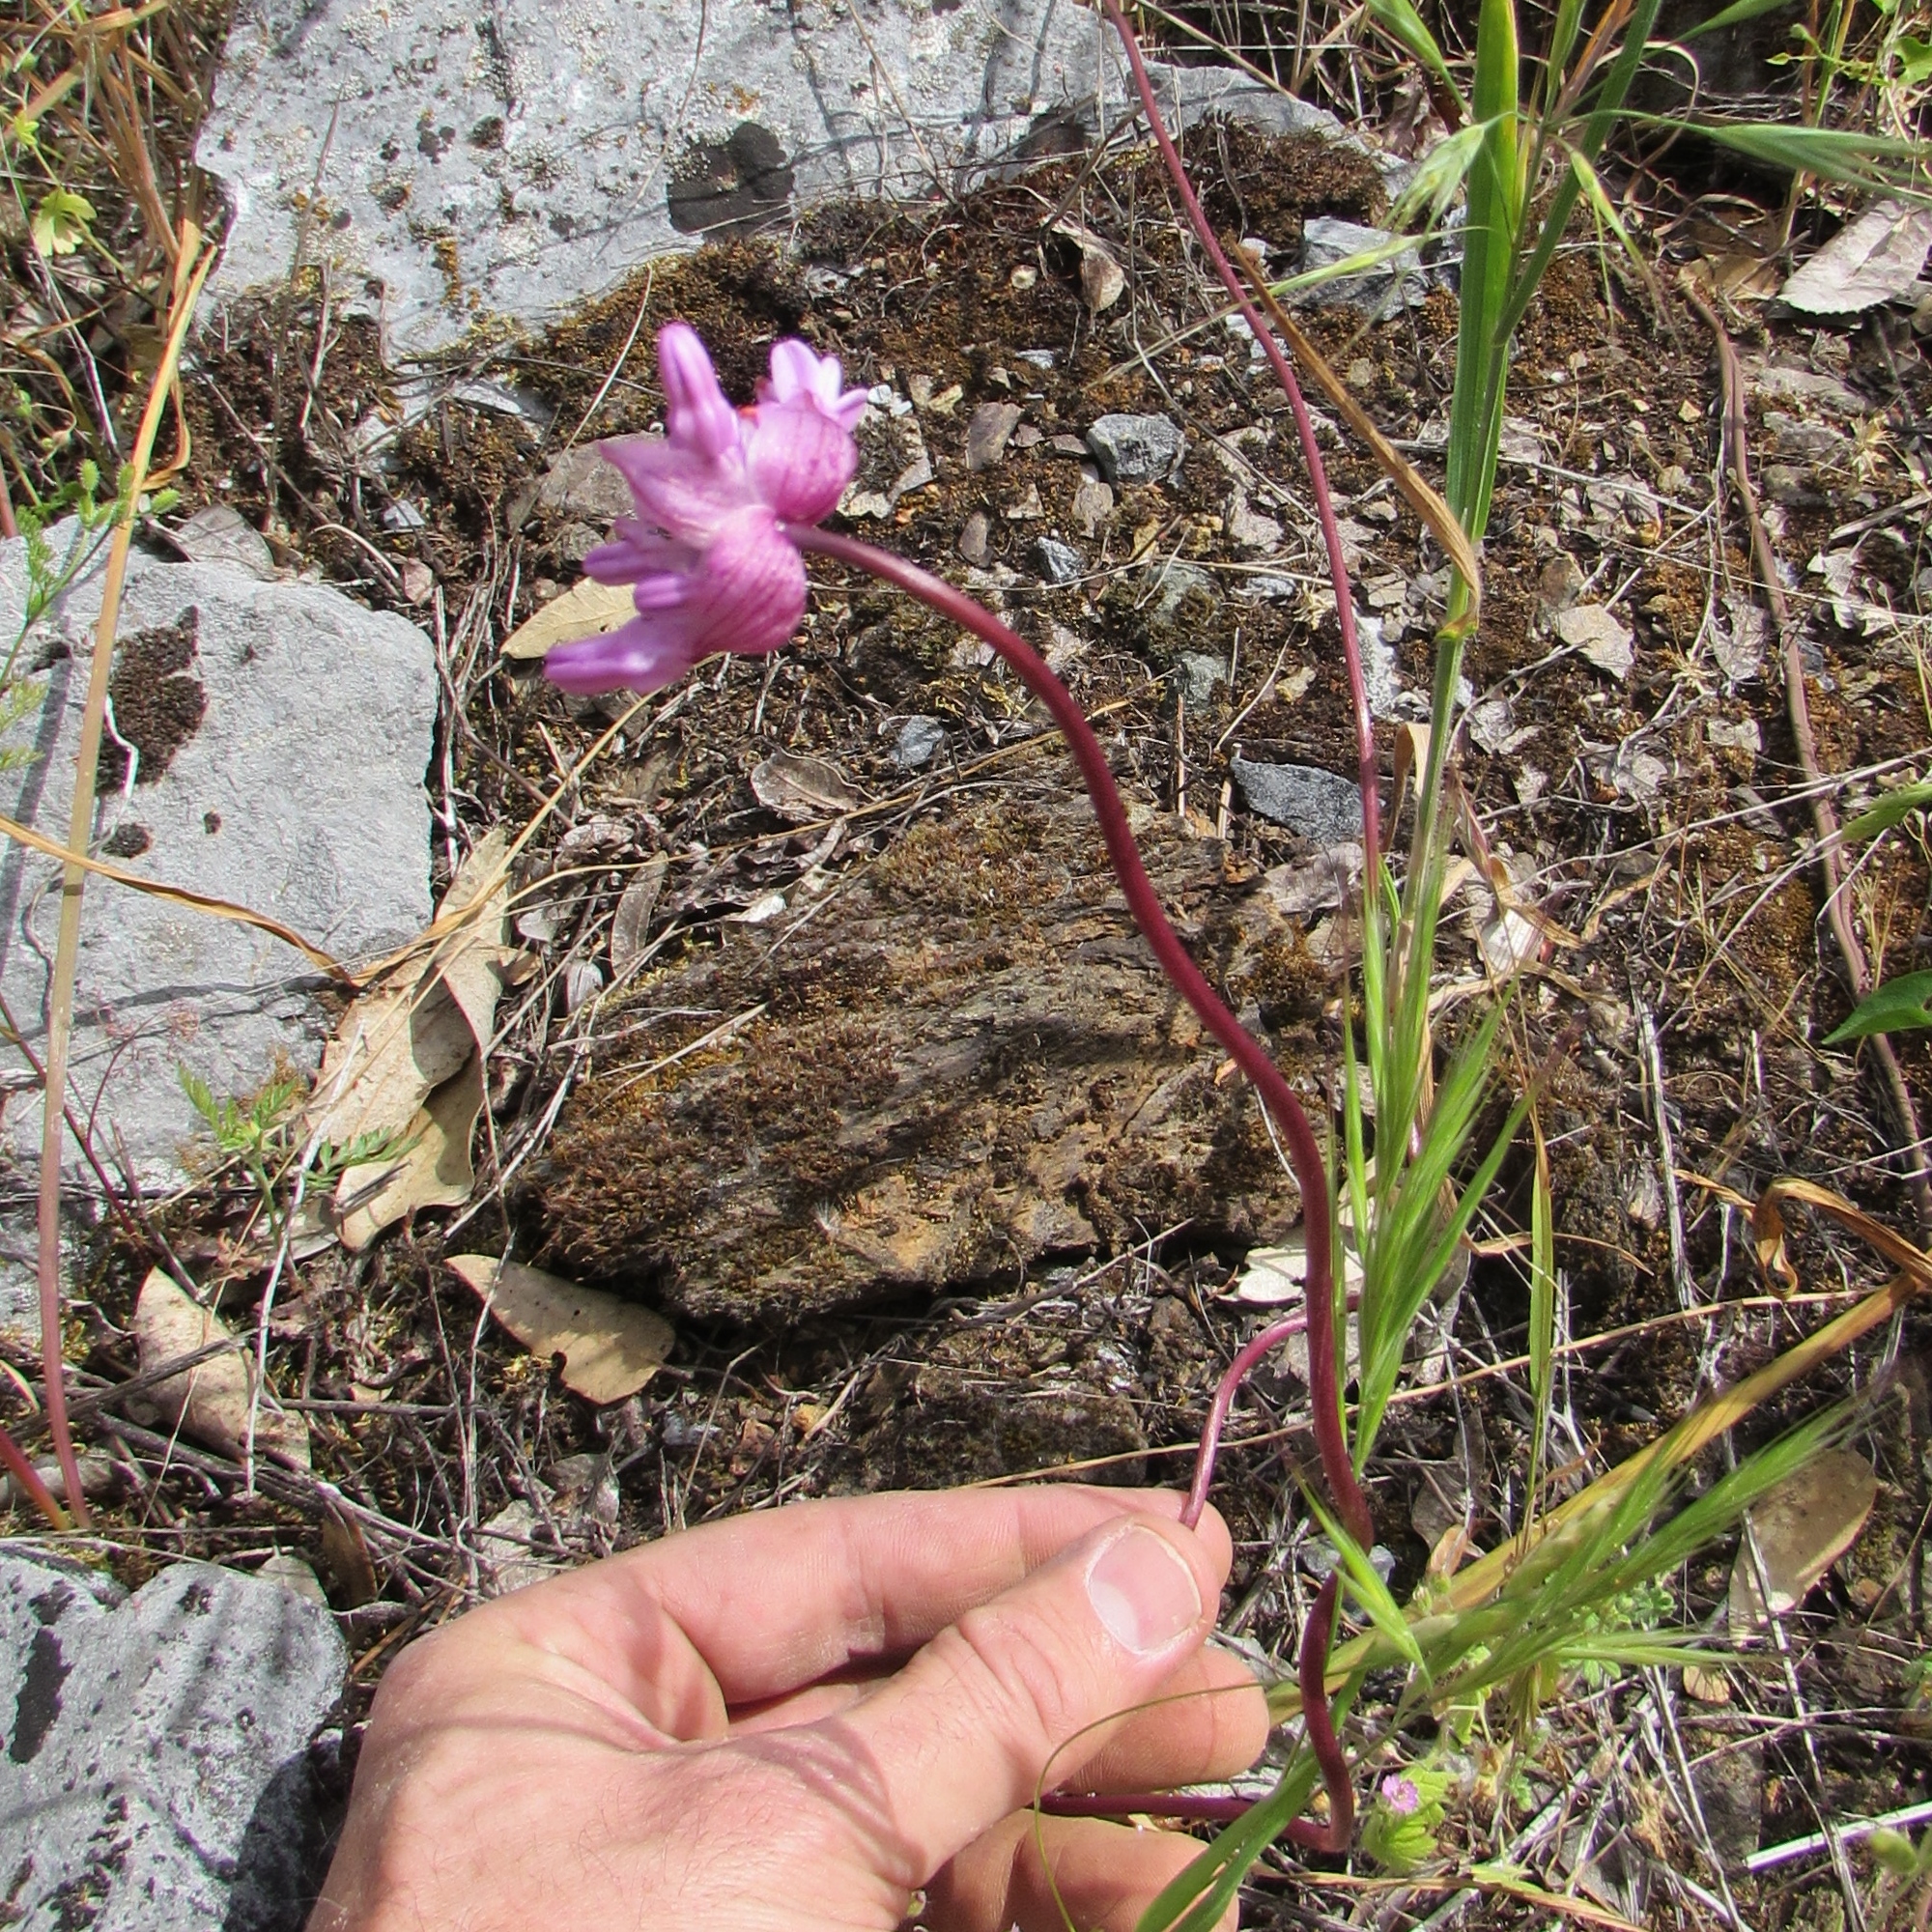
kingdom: Plantae
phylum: Tracheophyta
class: Liliopsida
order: Asparagales
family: Asparagaceae
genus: Dichelostemma
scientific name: Dichelostemma volubile
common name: Trining brodiaea
